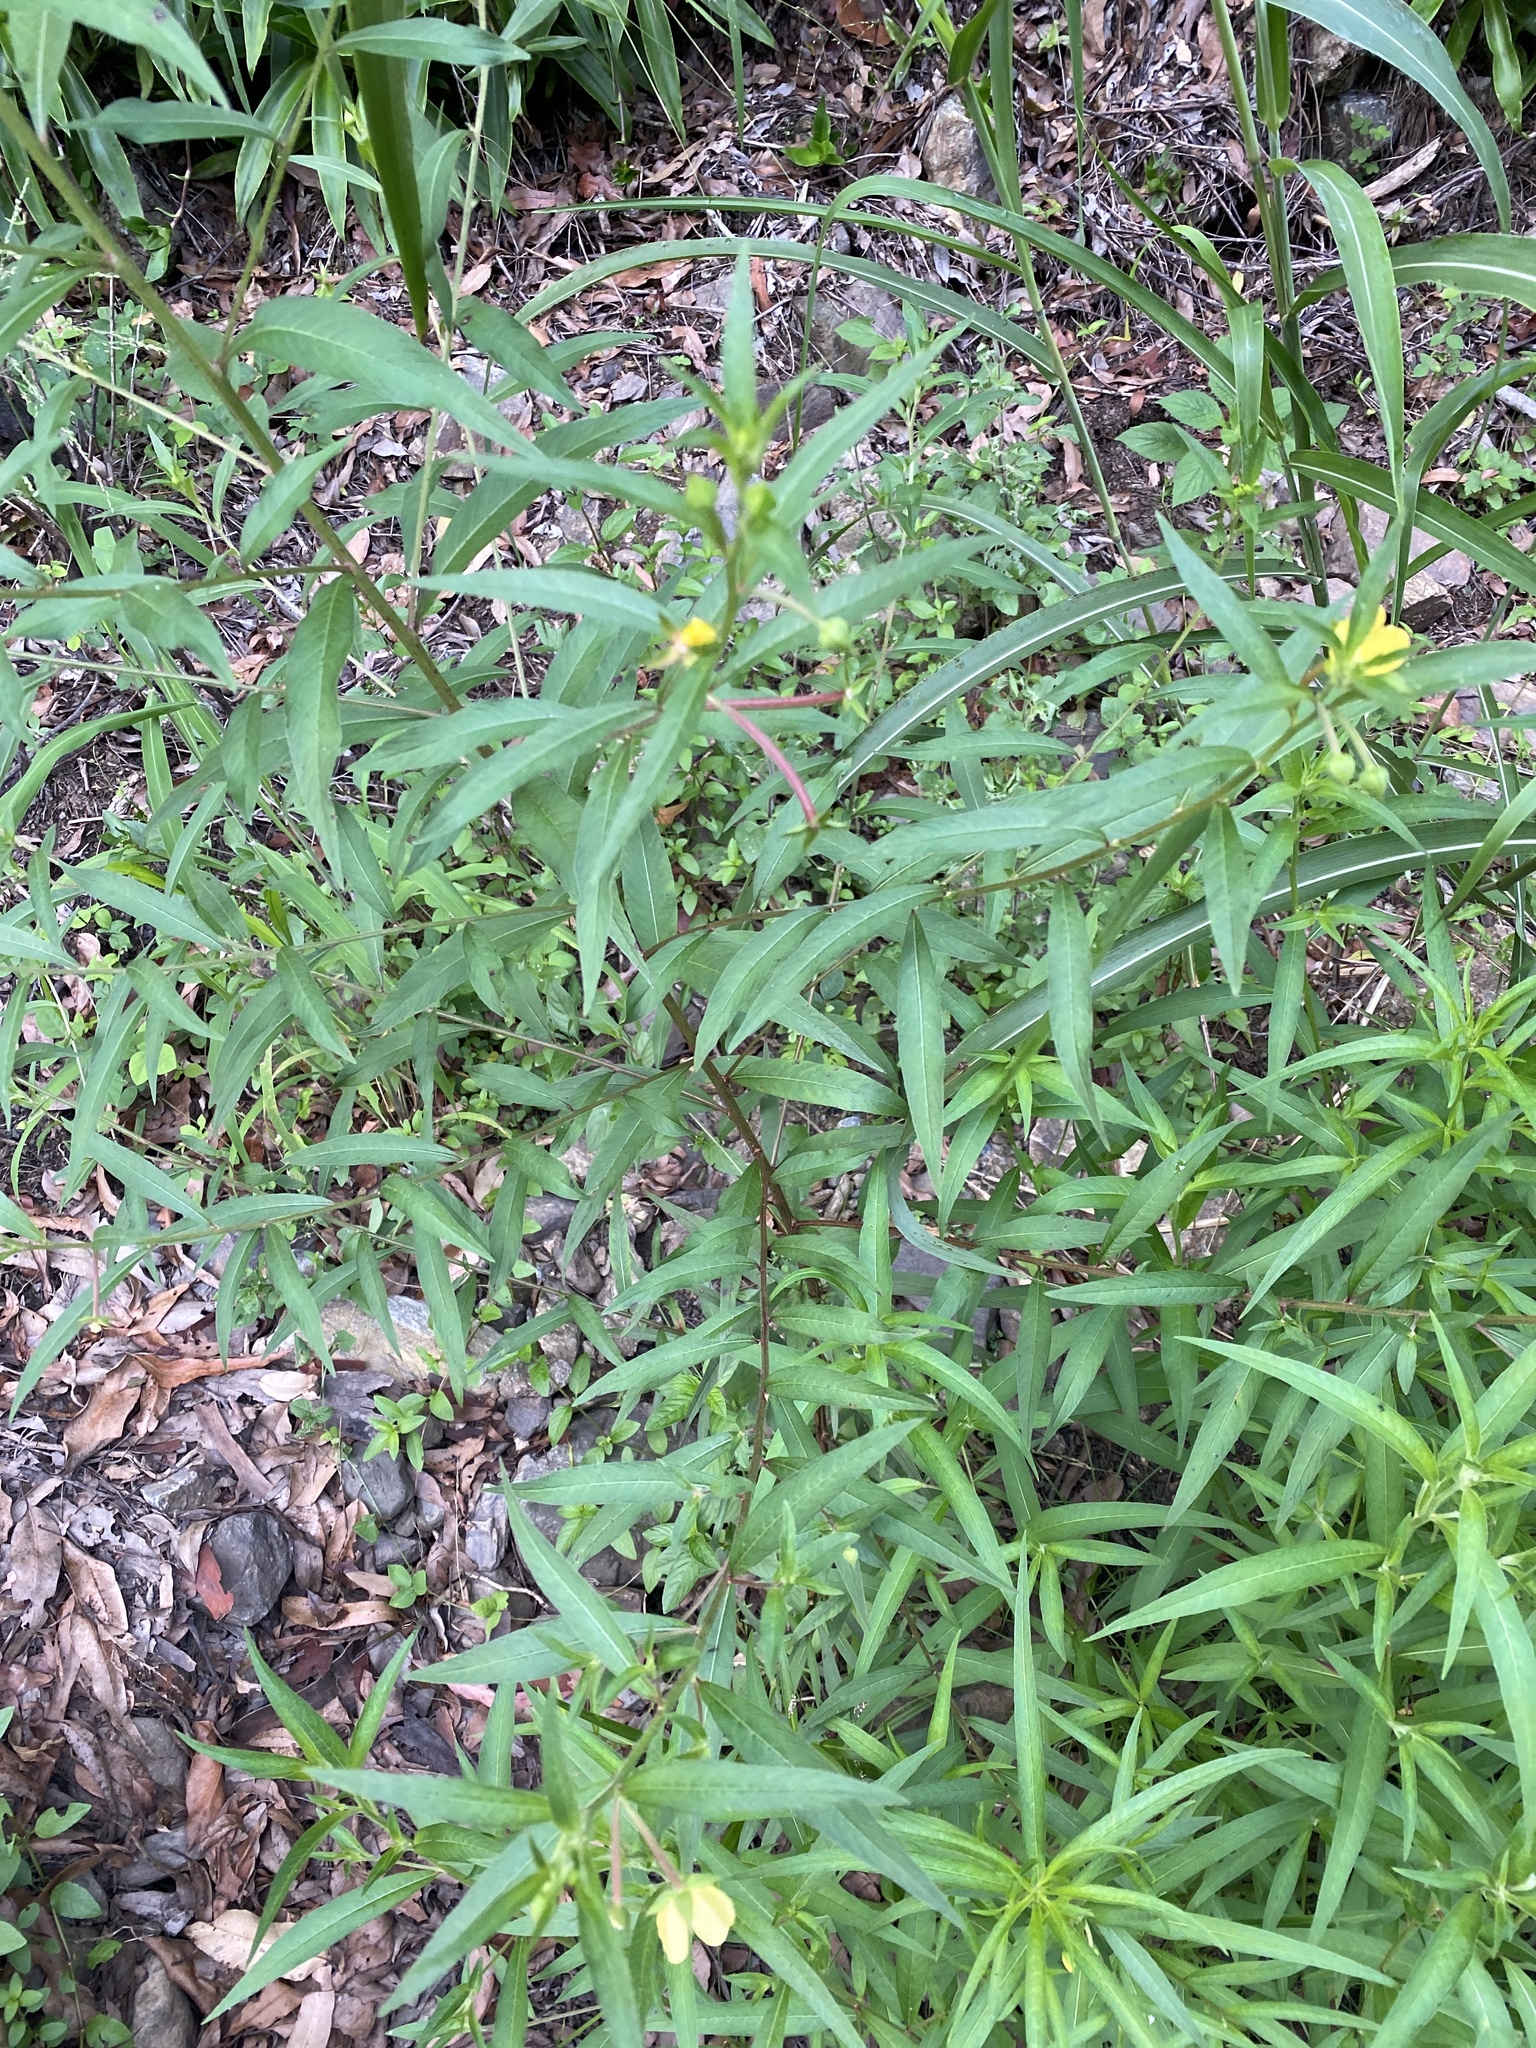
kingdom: Plantae
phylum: Tracheophyta
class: Magnoliopsida
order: Myrtales
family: Onagraceae
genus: Ludwigia
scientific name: Ludwigia octovalvis
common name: Water-primrose
